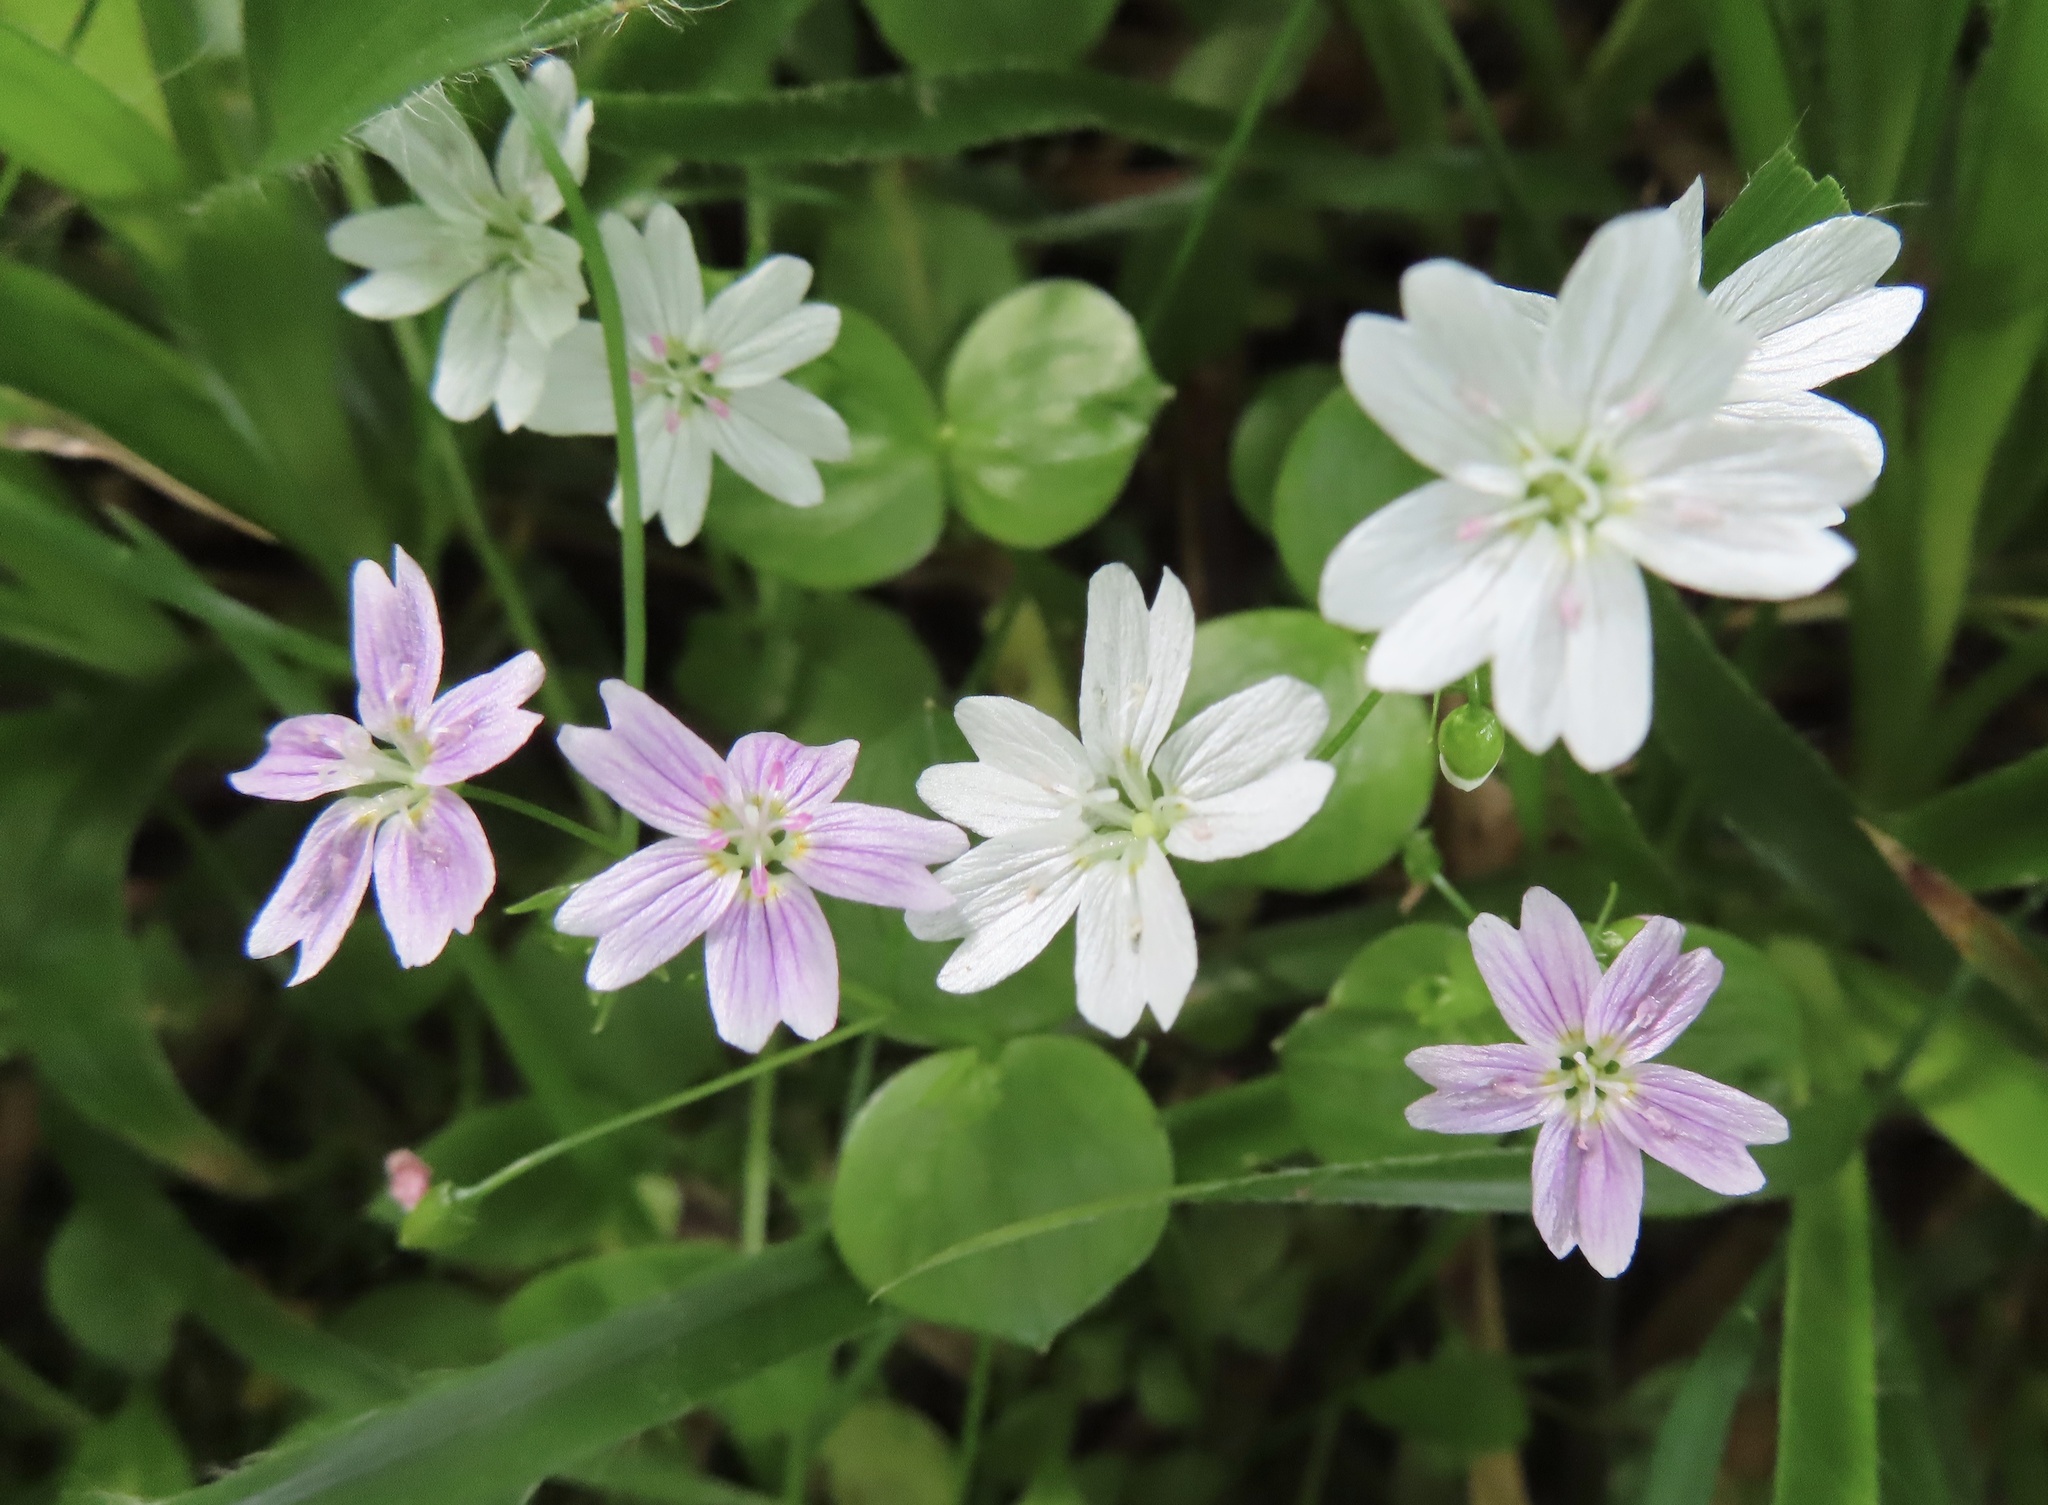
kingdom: Plantae
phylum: Tracheophyta
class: Magnoliopsida
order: Caryophyllales
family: Montiaceae
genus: Claytonia
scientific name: Claytonia sibirica
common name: Pink purslane
